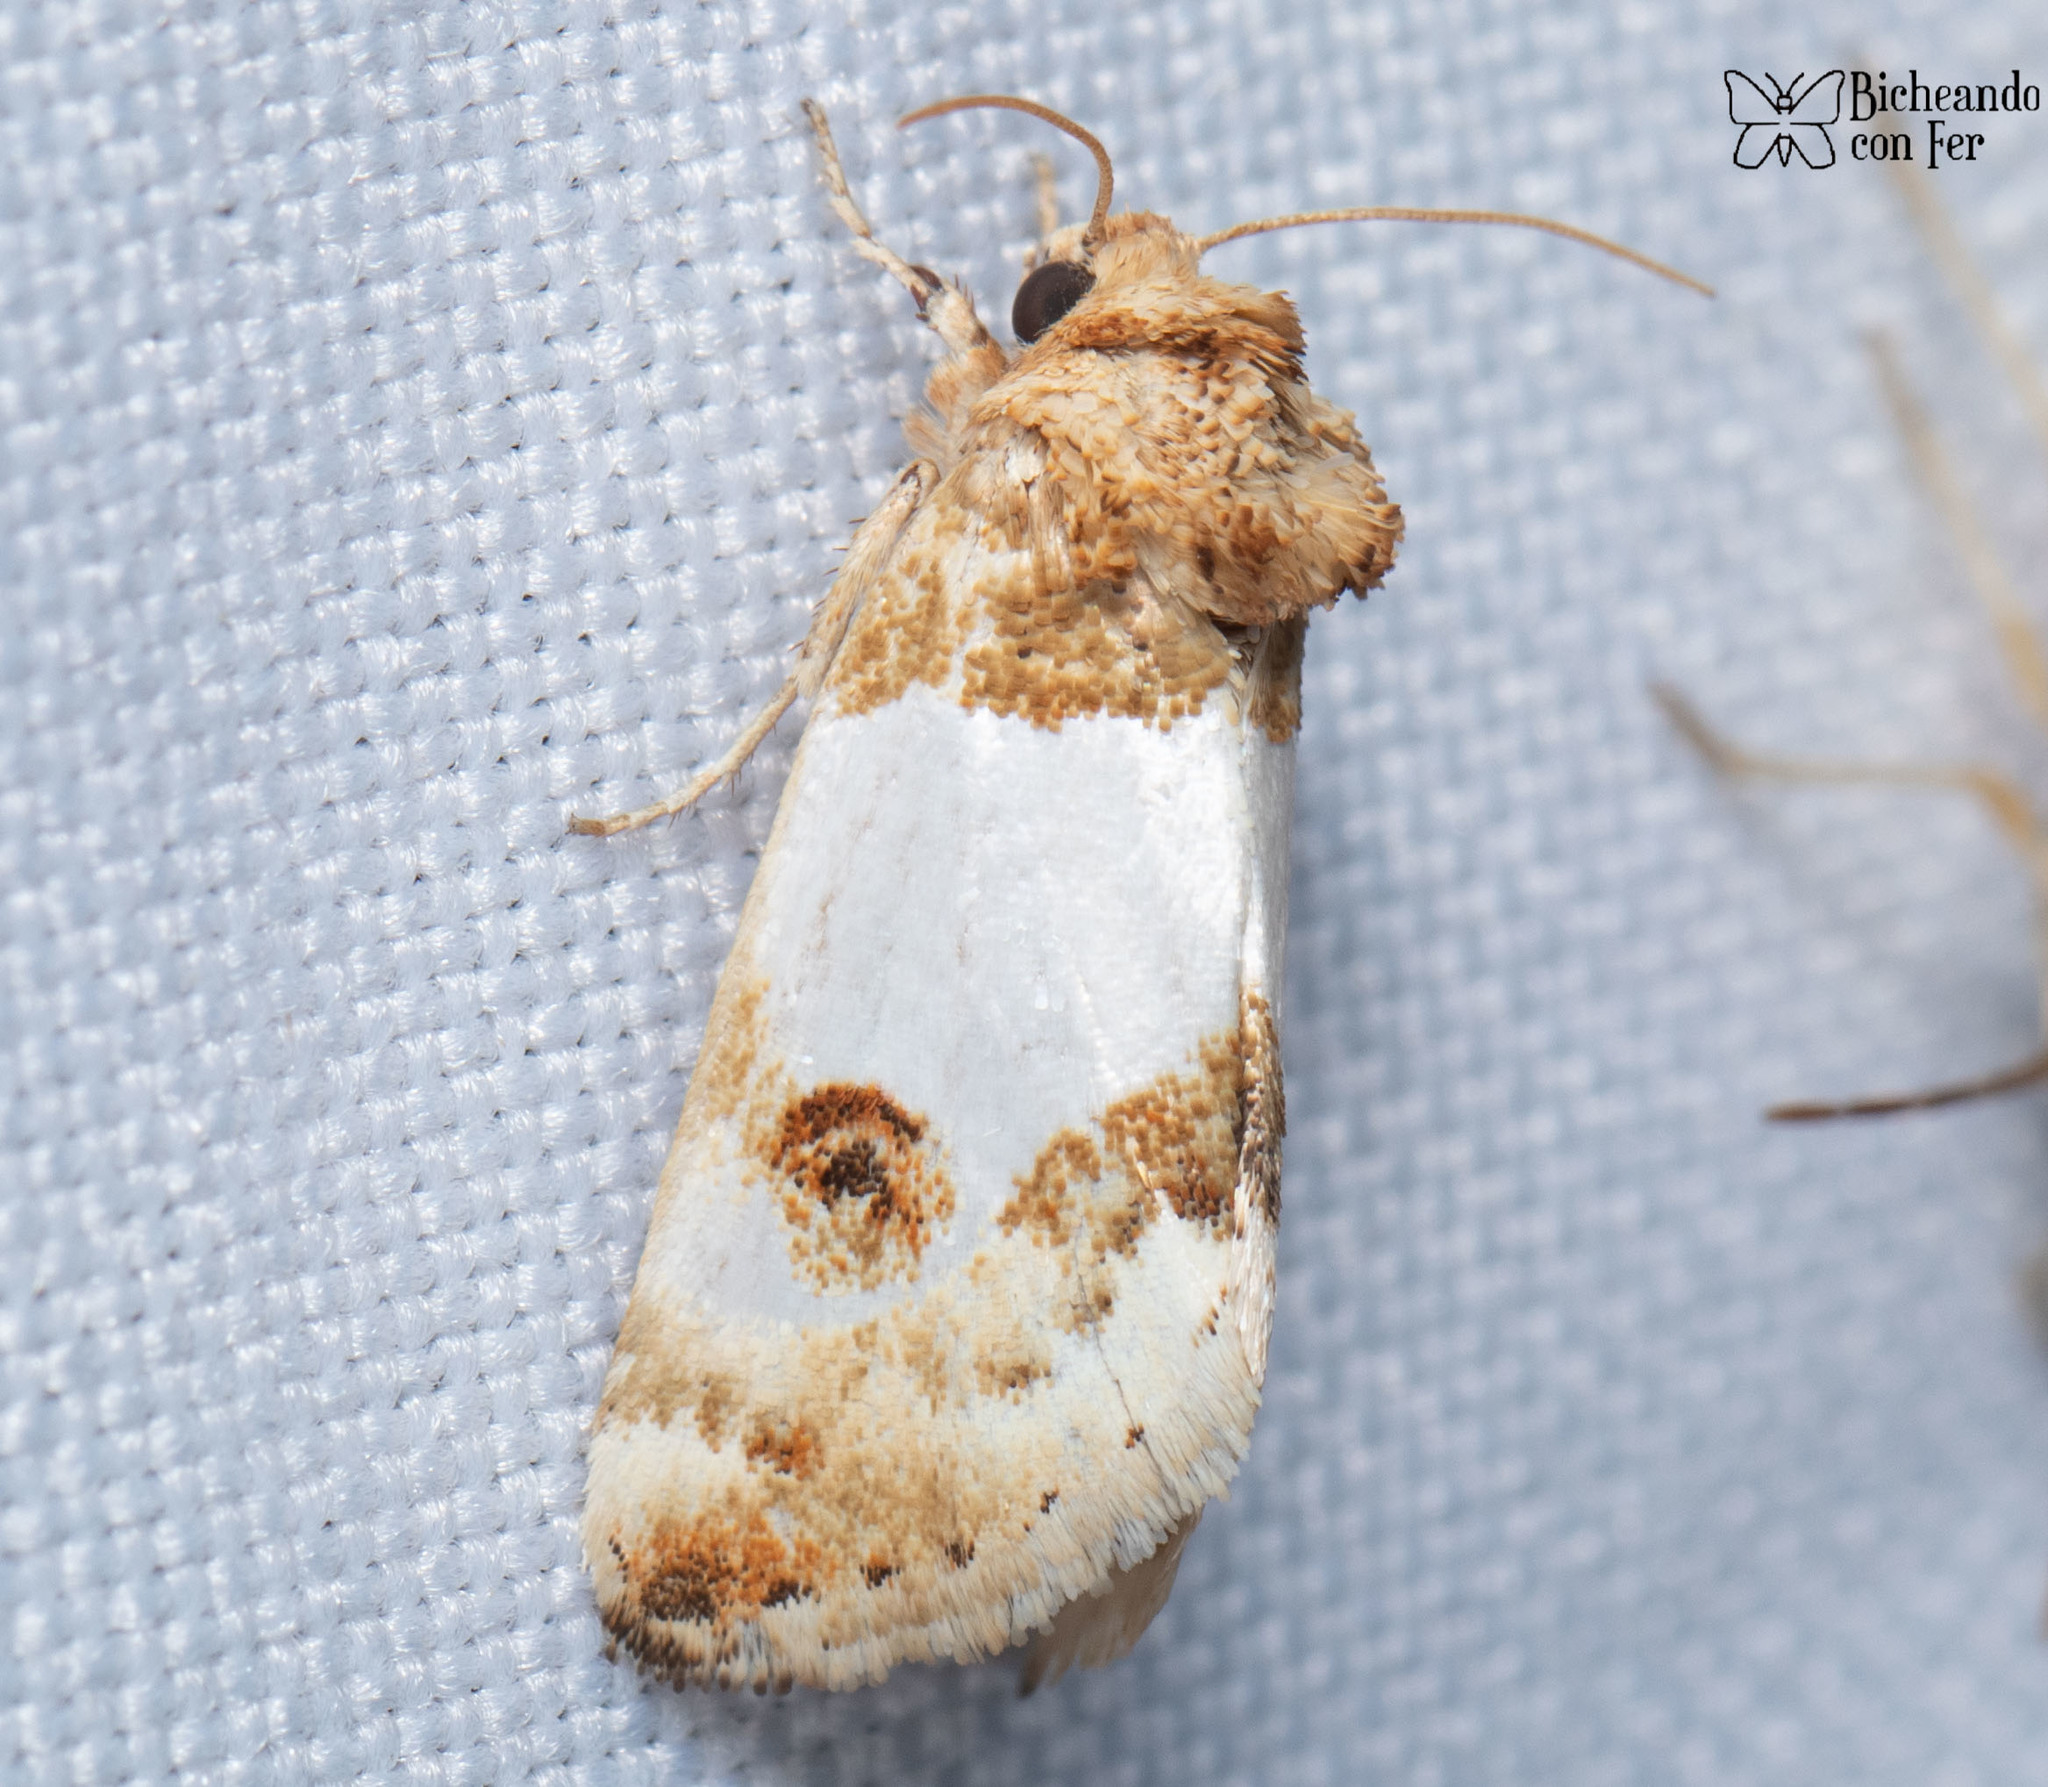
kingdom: Animalia
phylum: Arthropoda
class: Insecta
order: Lepidoptera
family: Noctuidae
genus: Schinia
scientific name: Schinia oculata
